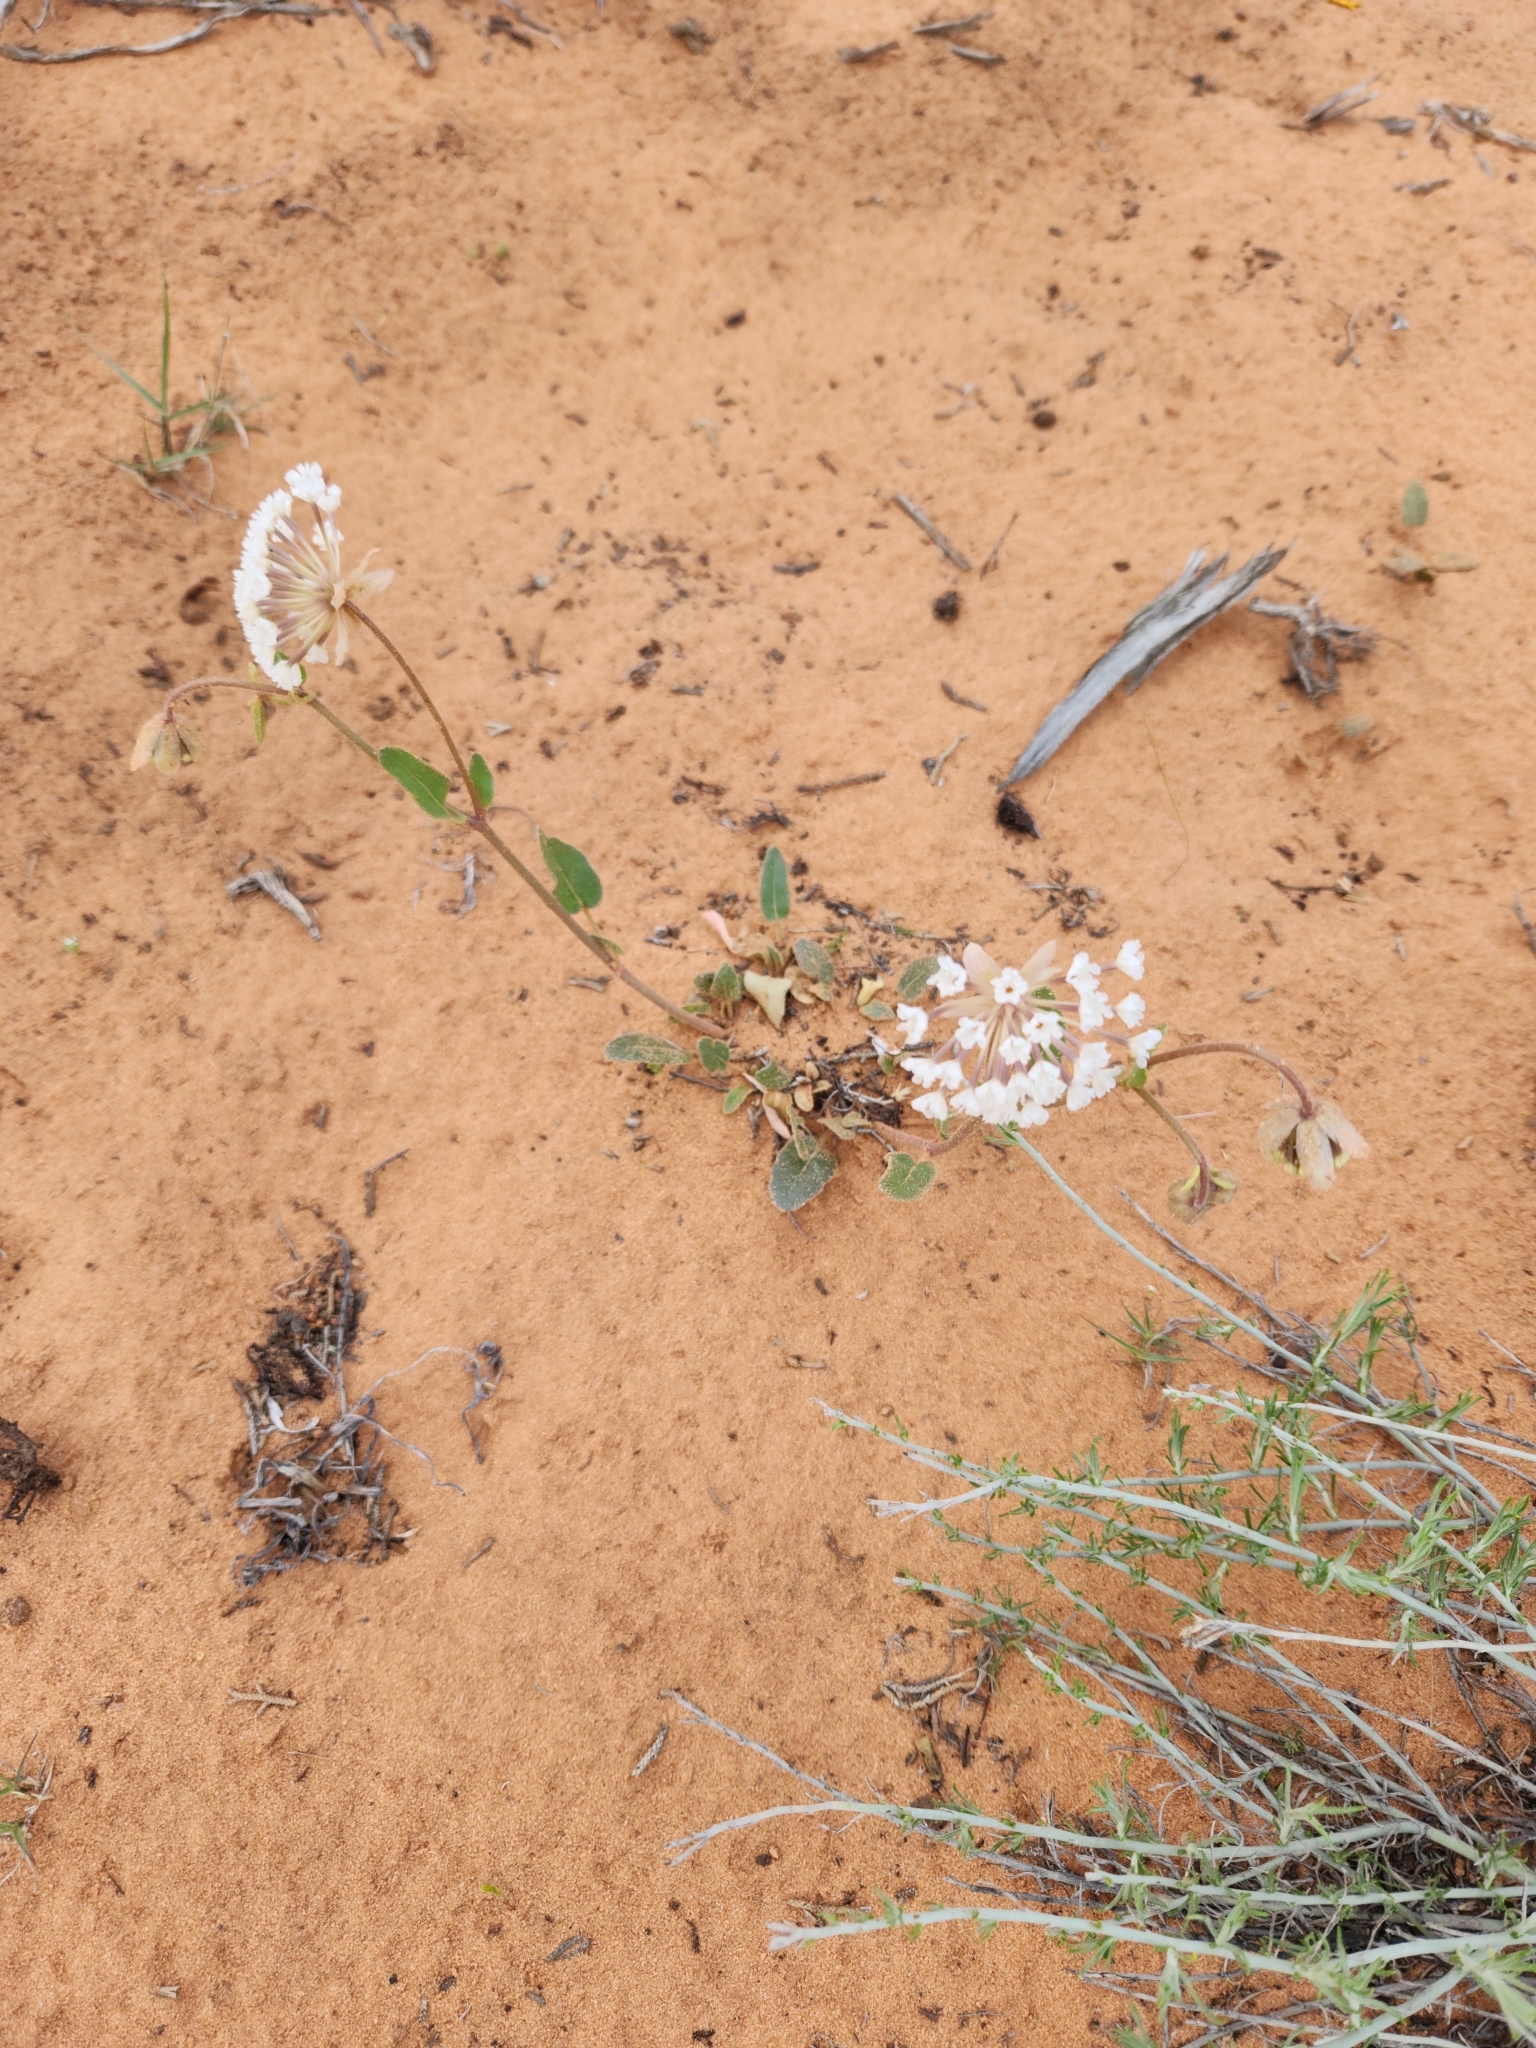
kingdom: Plantae
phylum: Tracheophyta
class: Magnoliopsida
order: Caryophyllales
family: Nyctaginaceae
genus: Abronia
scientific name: Abronia elliptica
